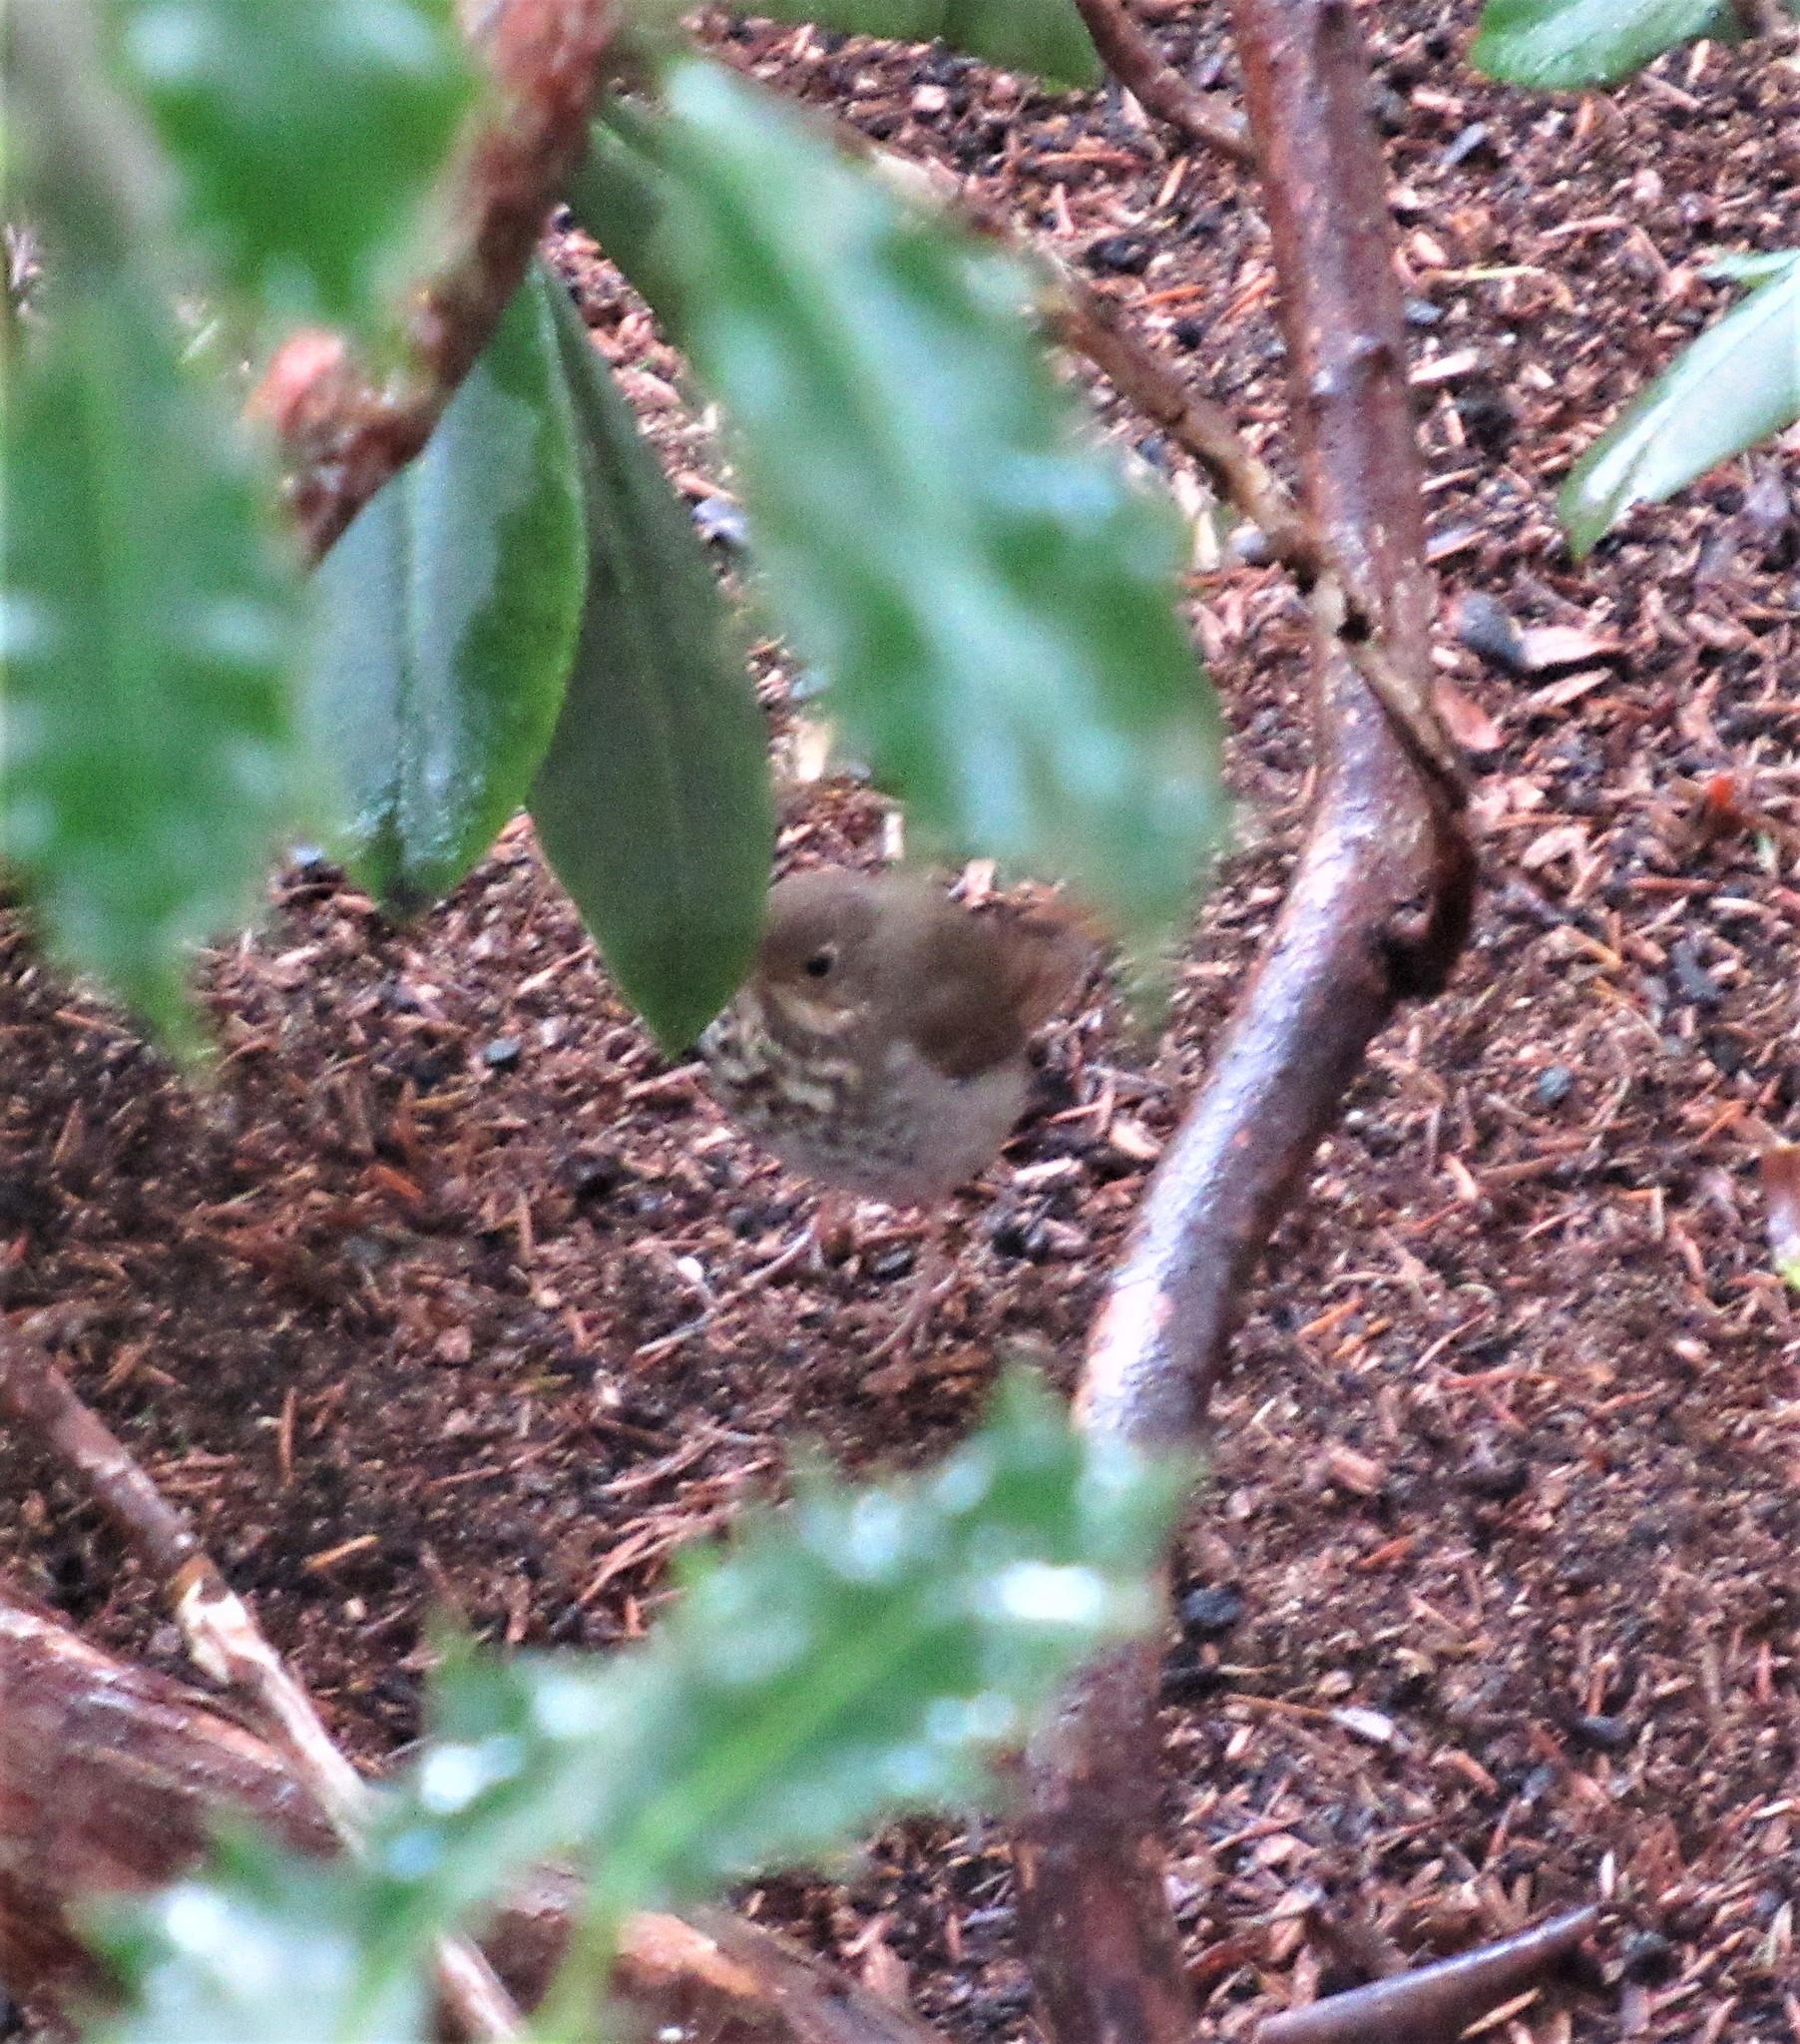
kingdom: Animalia
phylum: Chordata
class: Aves
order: Passeriformes
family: Turdidae
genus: Catharus
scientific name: Catharus guttatus
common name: Hermit thrush
